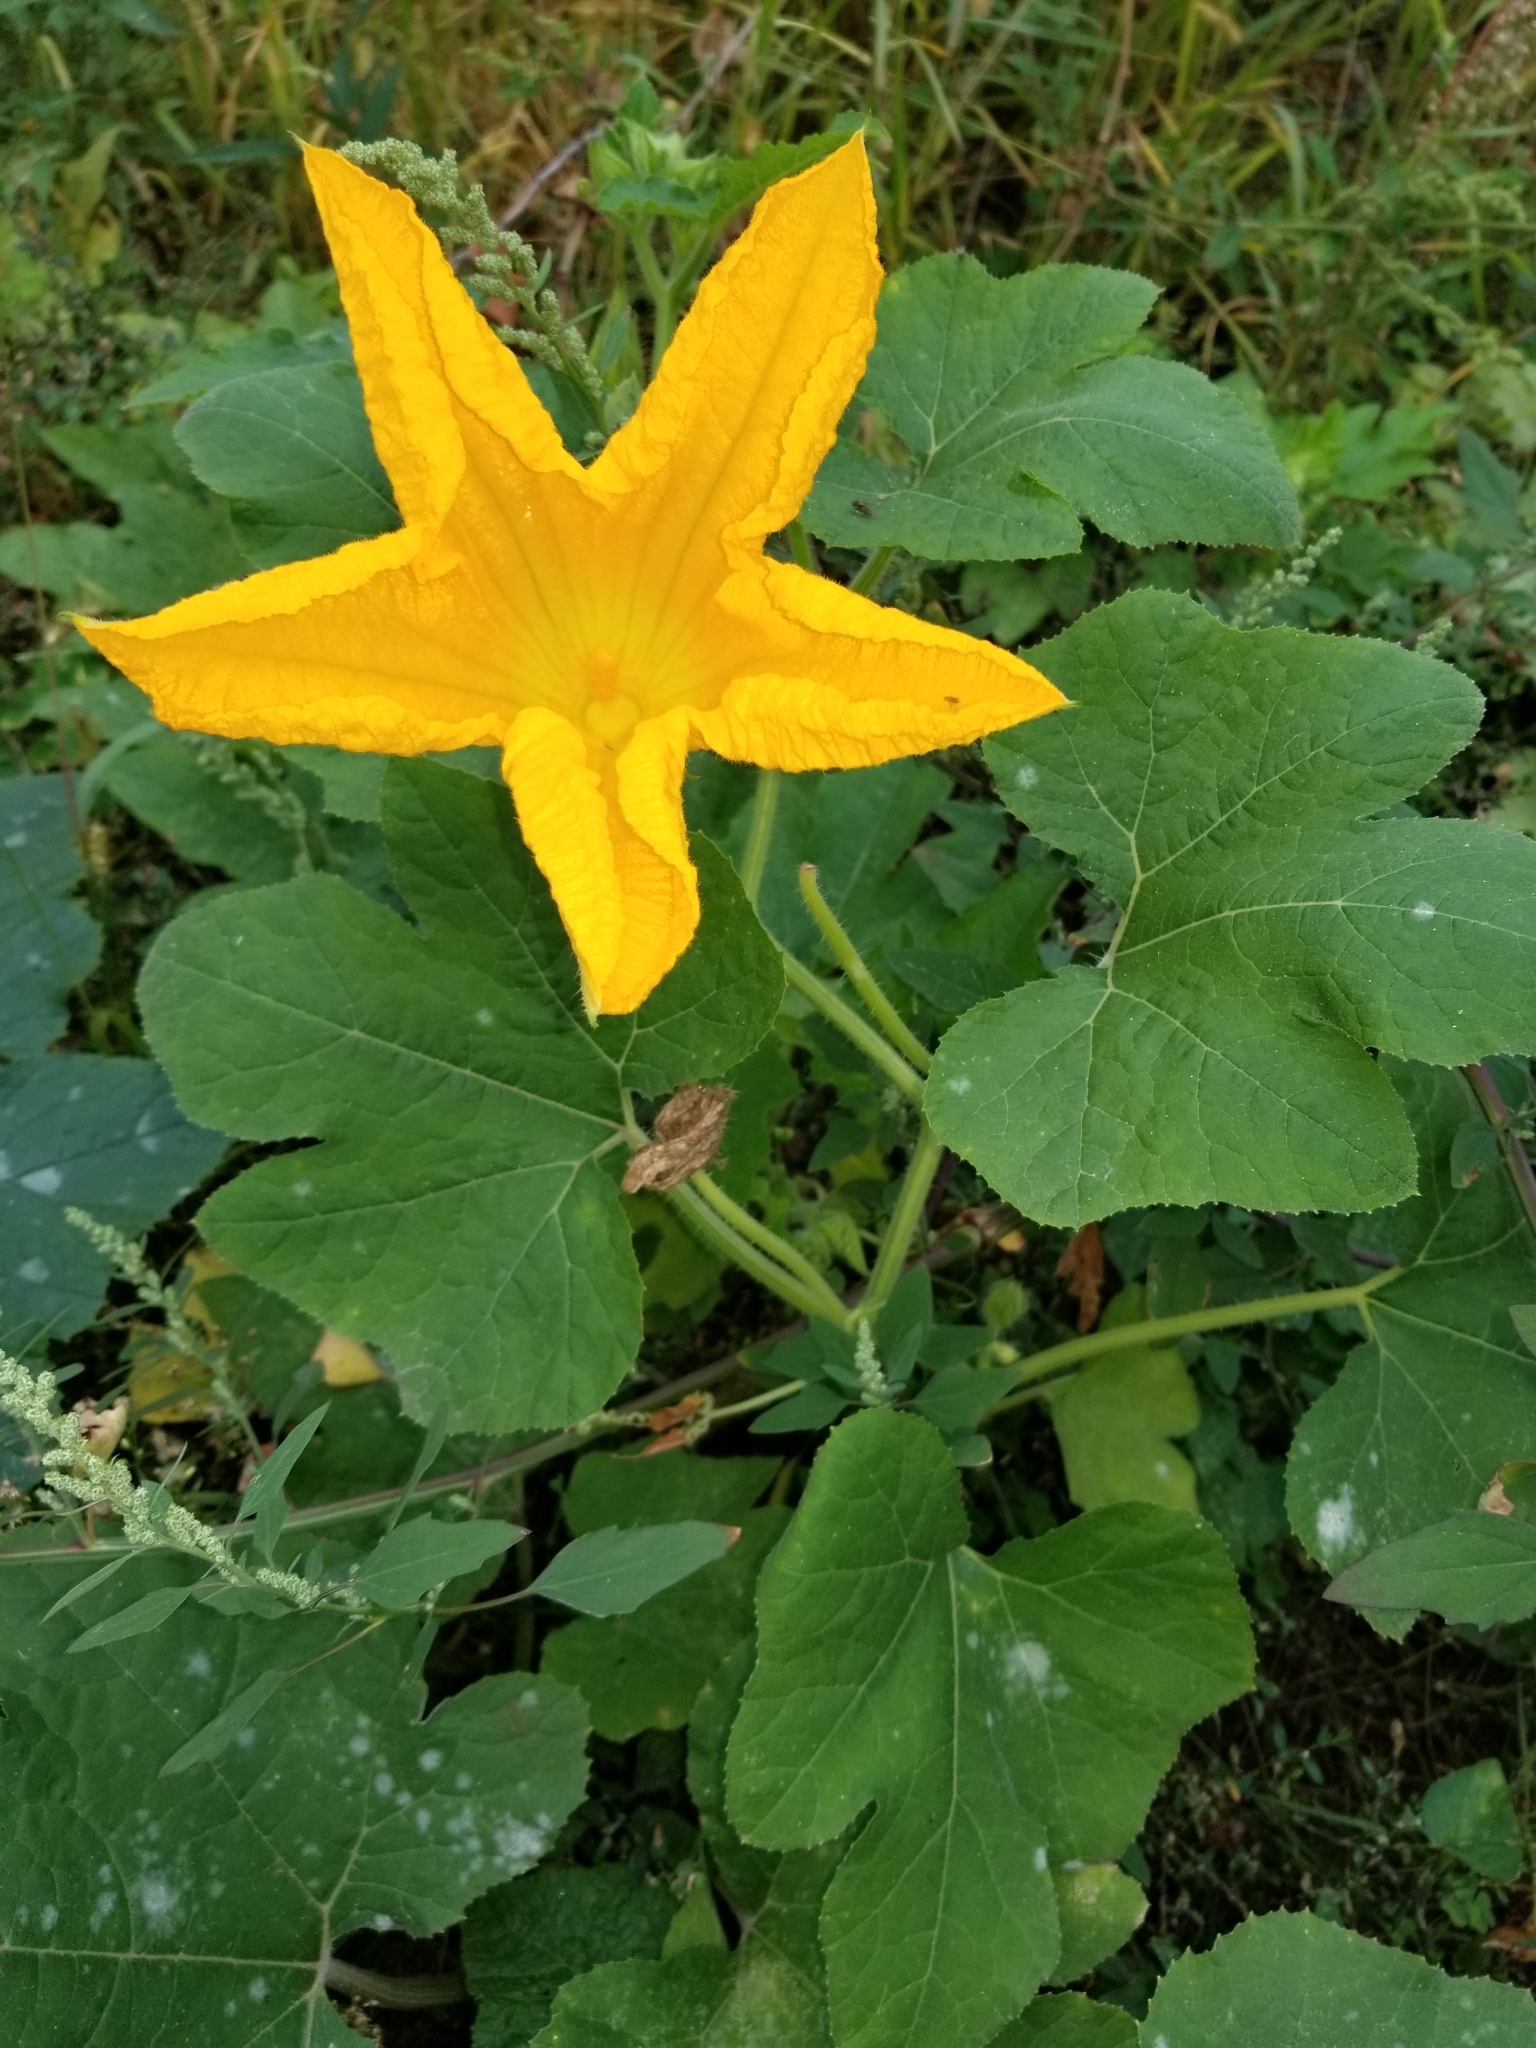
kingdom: Plantae
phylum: Tracheophyta
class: Magnoliopsida
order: Cucurbitales
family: Cucurbitaceae
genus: Cucurbita
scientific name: Cucurbita pepo
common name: Marrow
